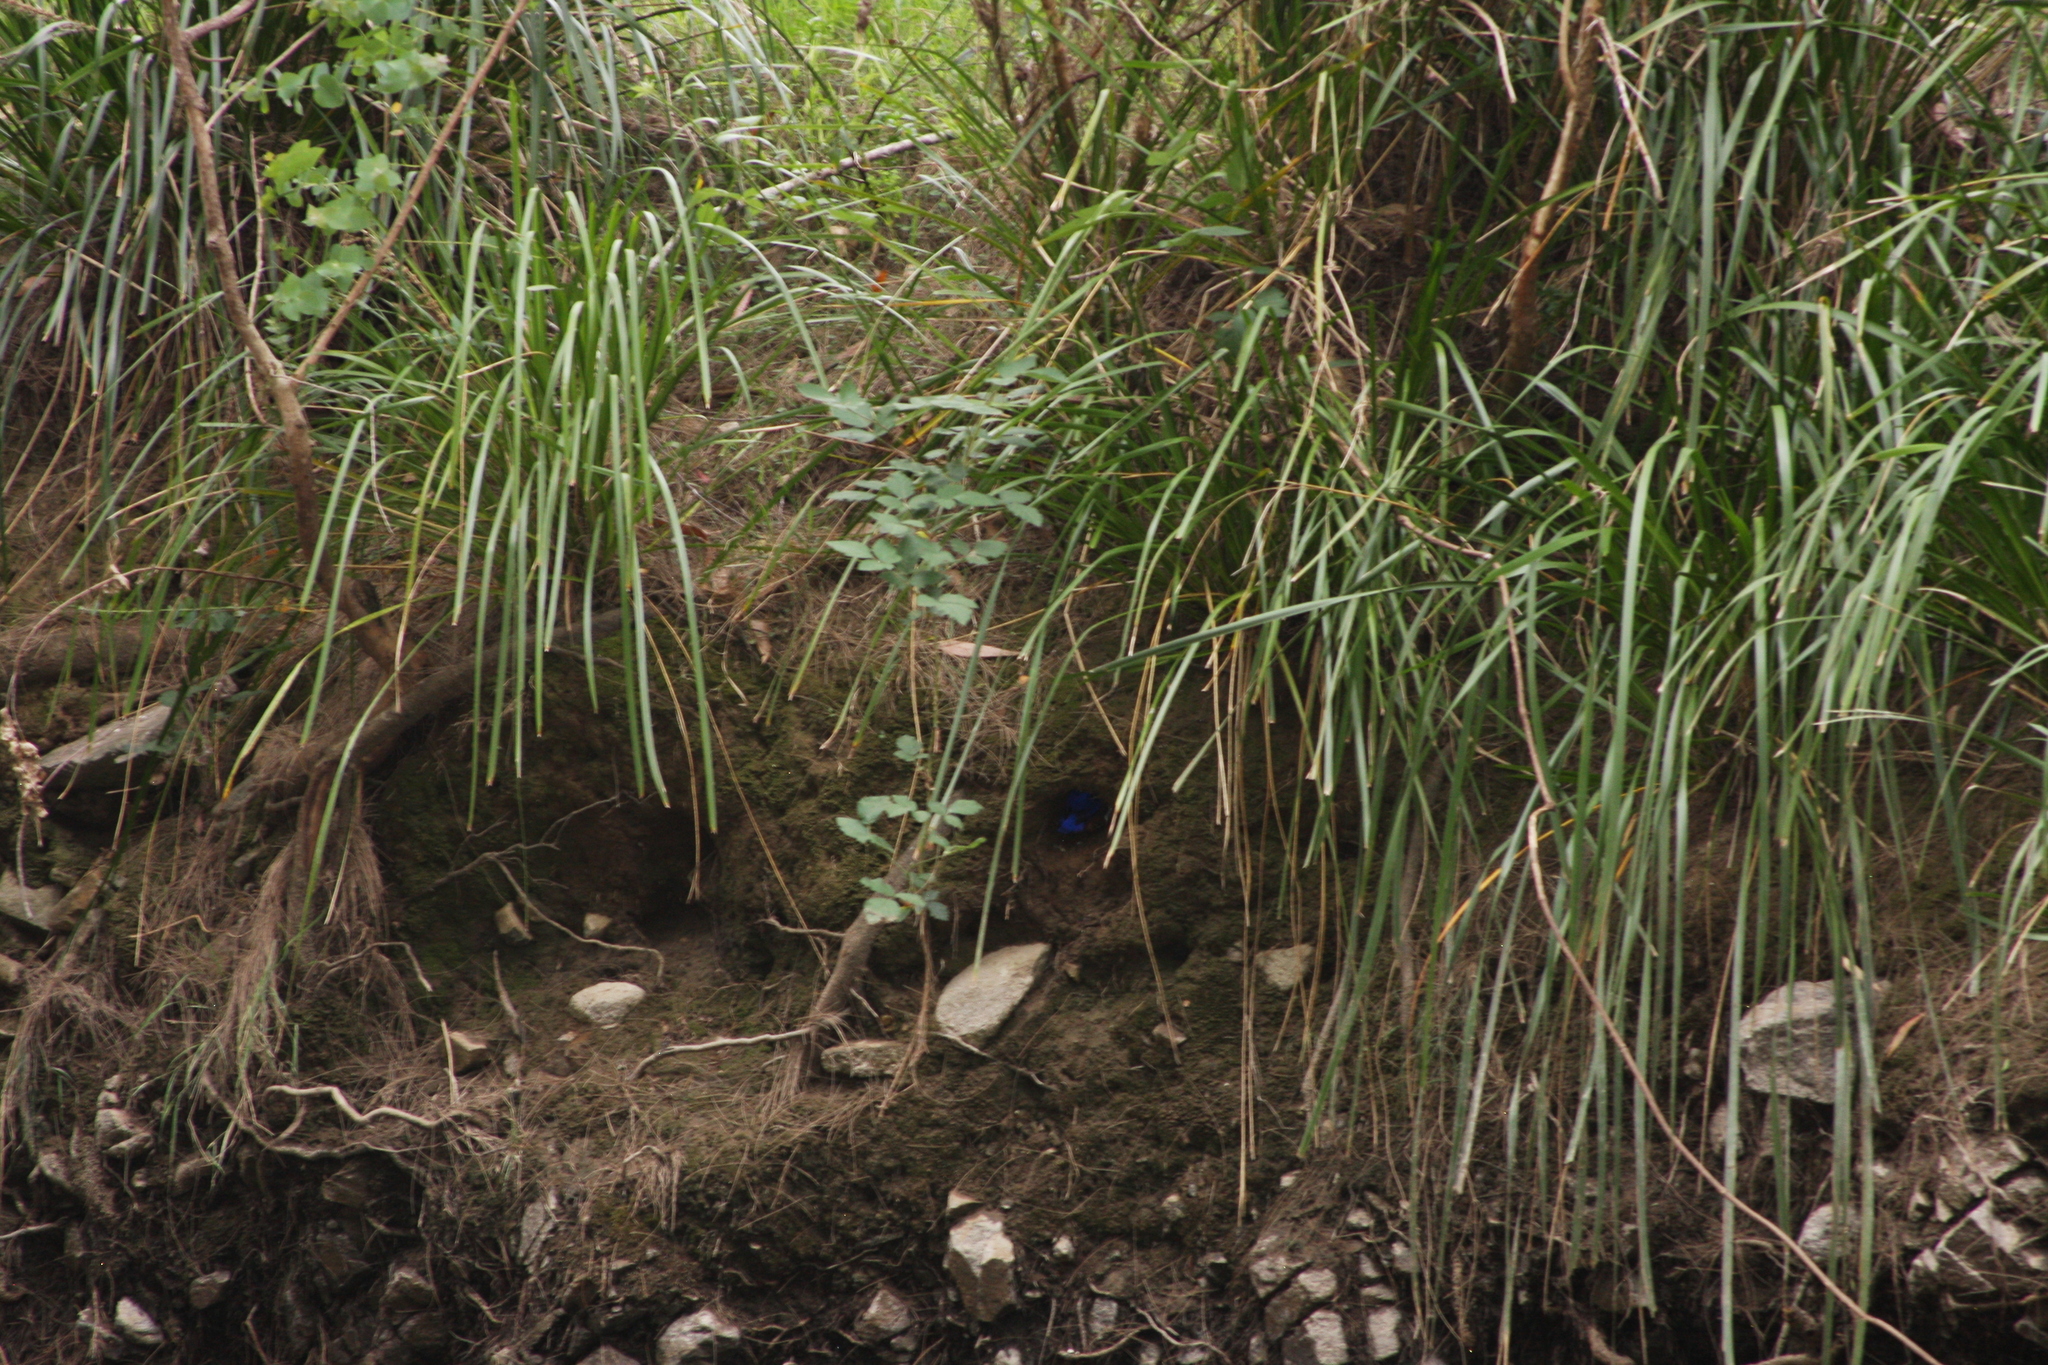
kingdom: Animalia
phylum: Chordata
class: Aves
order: Coraciiformes
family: Alcedinidae
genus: Ceyx
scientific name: Ceyx azureus
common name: Azure kingfisher
